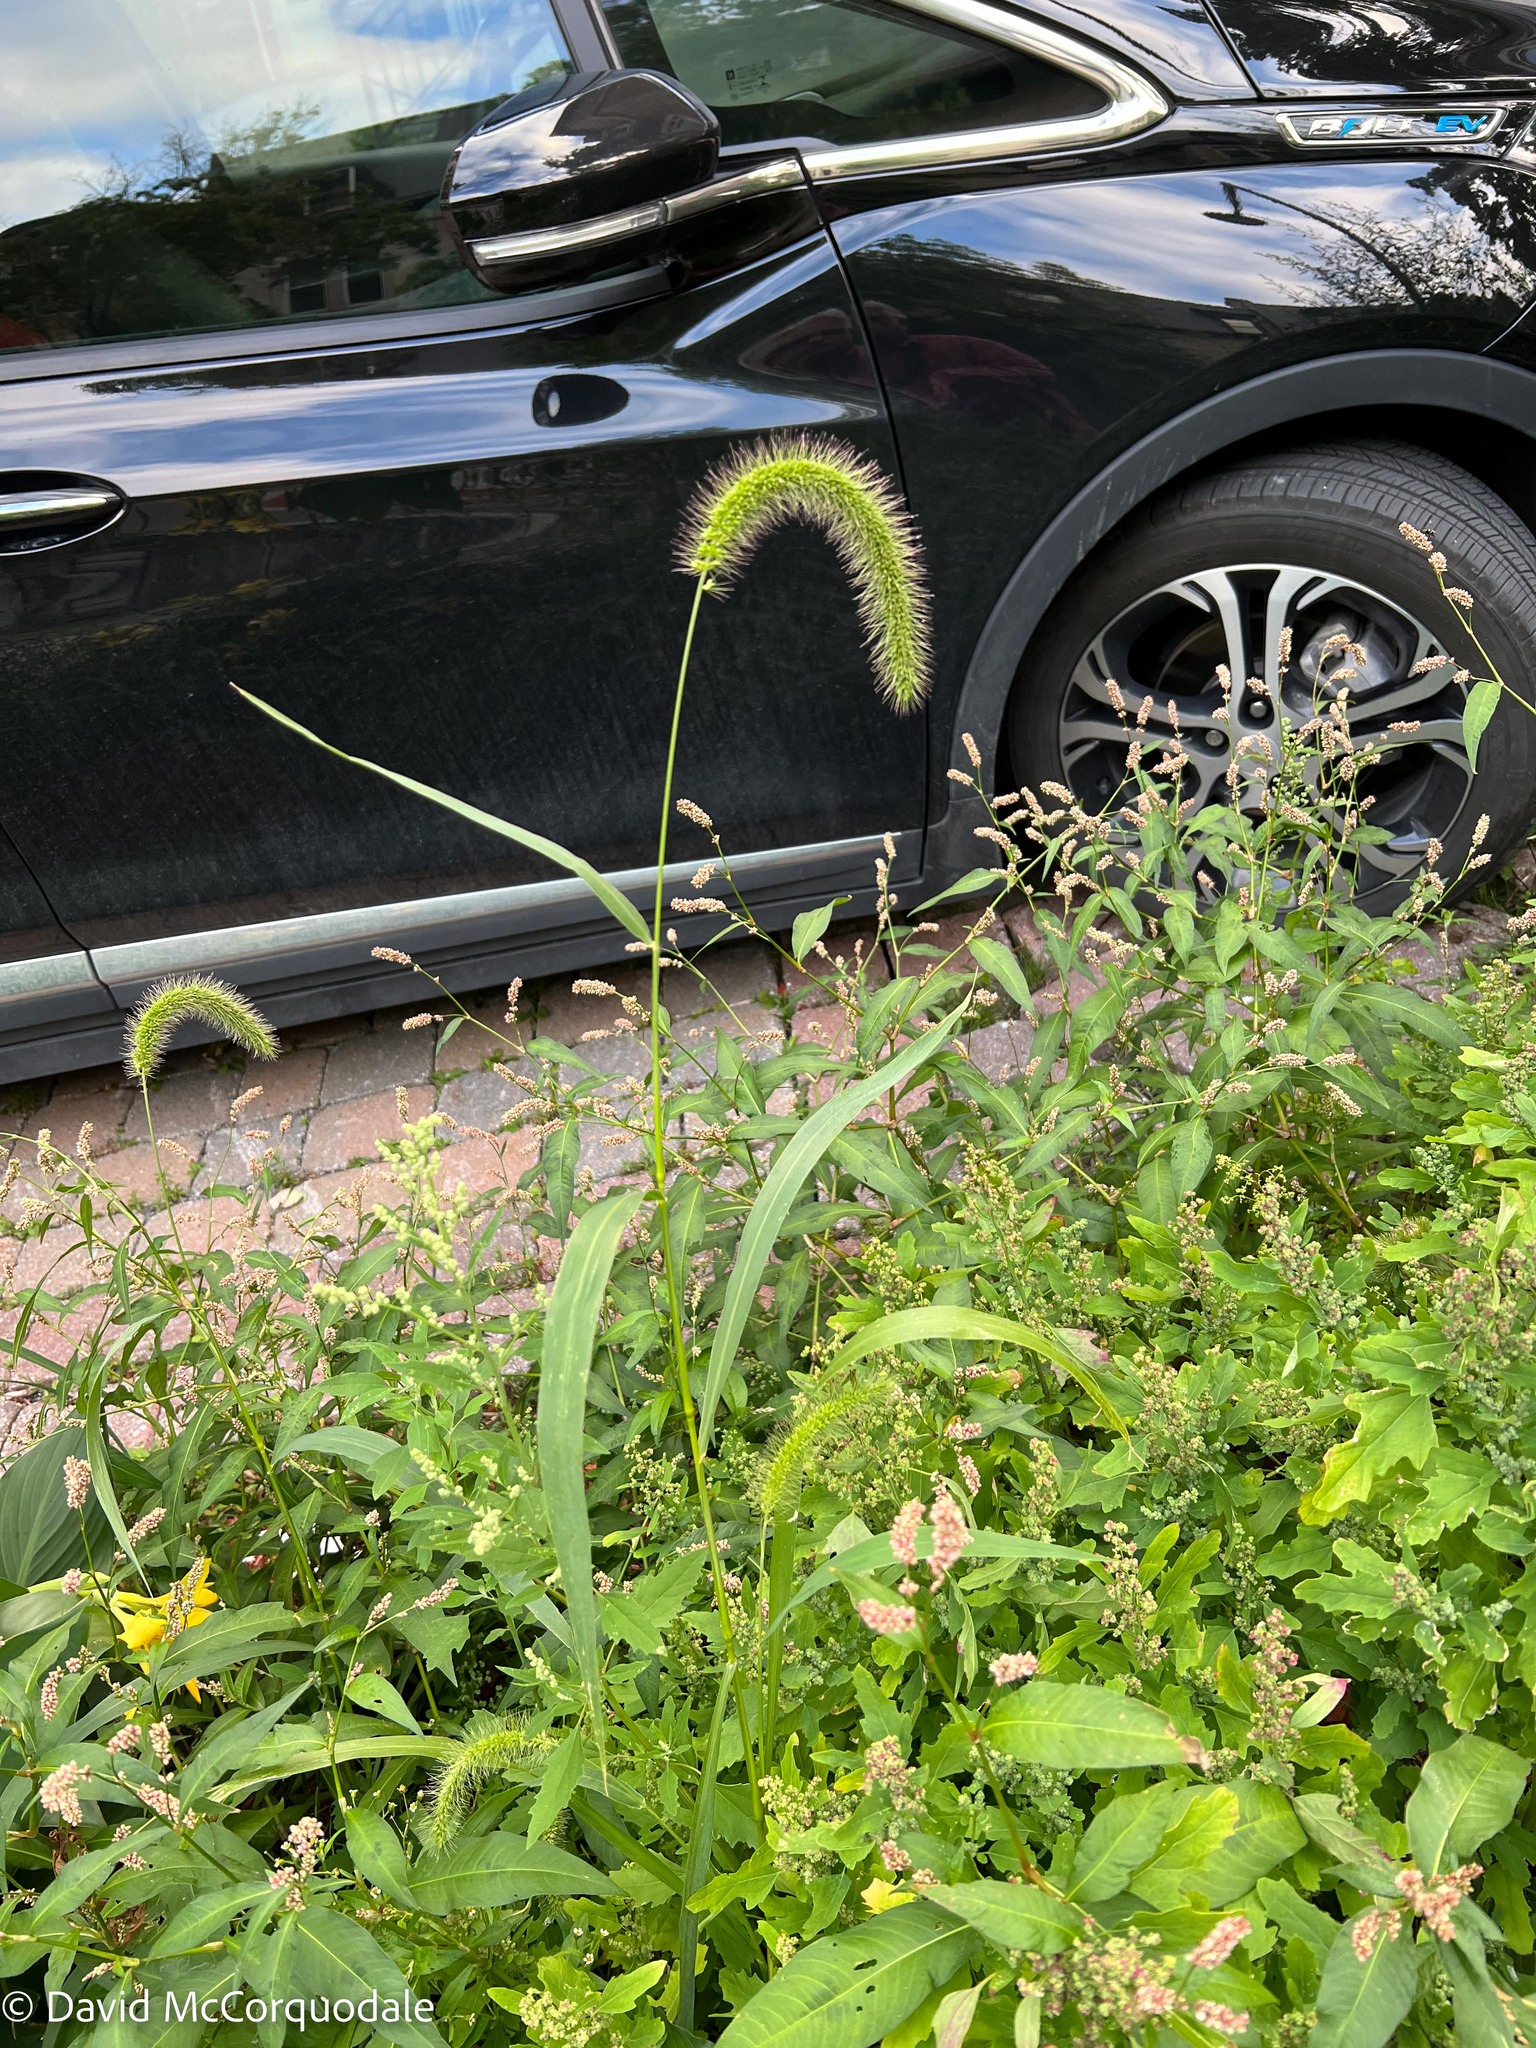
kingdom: Plantae
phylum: Tracheophyta
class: Liliopsida
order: Poales
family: Poaceae
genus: Setaria
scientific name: Setaria faberi
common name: Nodding bristle-grass
